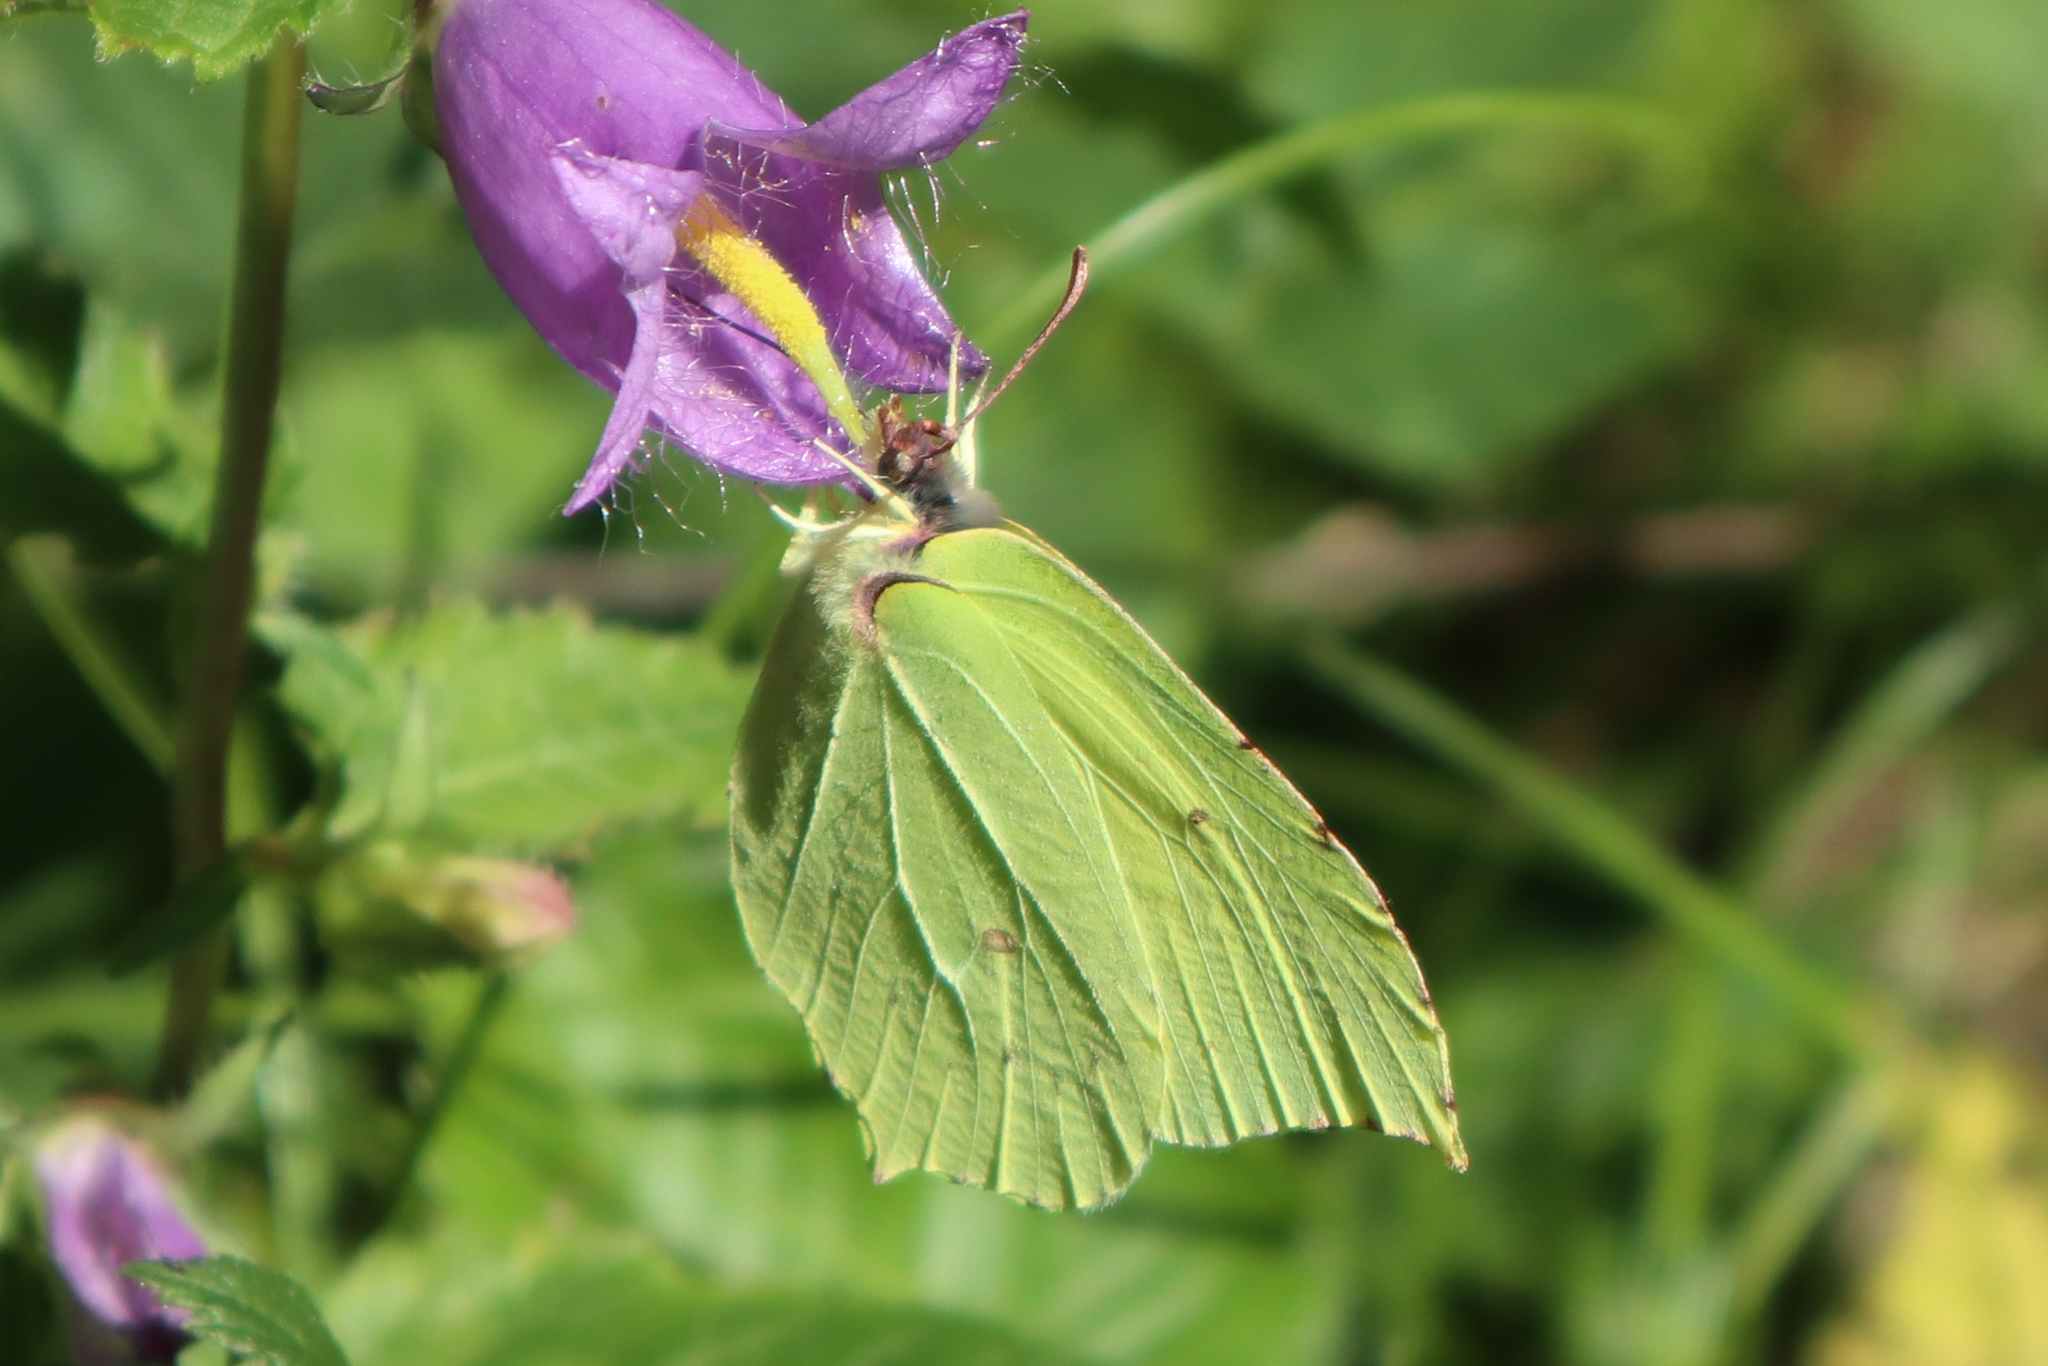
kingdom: Animalia
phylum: Arthropoda
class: Insecta
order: Lepidoptera
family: Pieridae
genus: Gonepteryx
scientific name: Gonepteryx rhamni
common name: Brimstone
